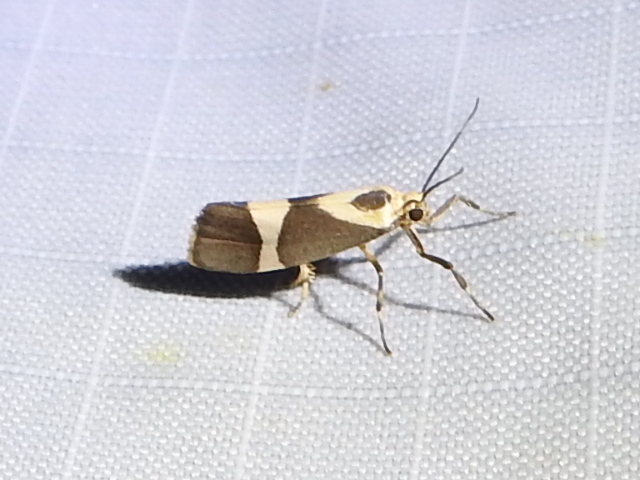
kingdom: Animalia
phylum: Arthropoda
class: Insecta
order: Lepidoptera
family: Erebidae
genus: Cisthene
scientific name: Cisthene subrufa
